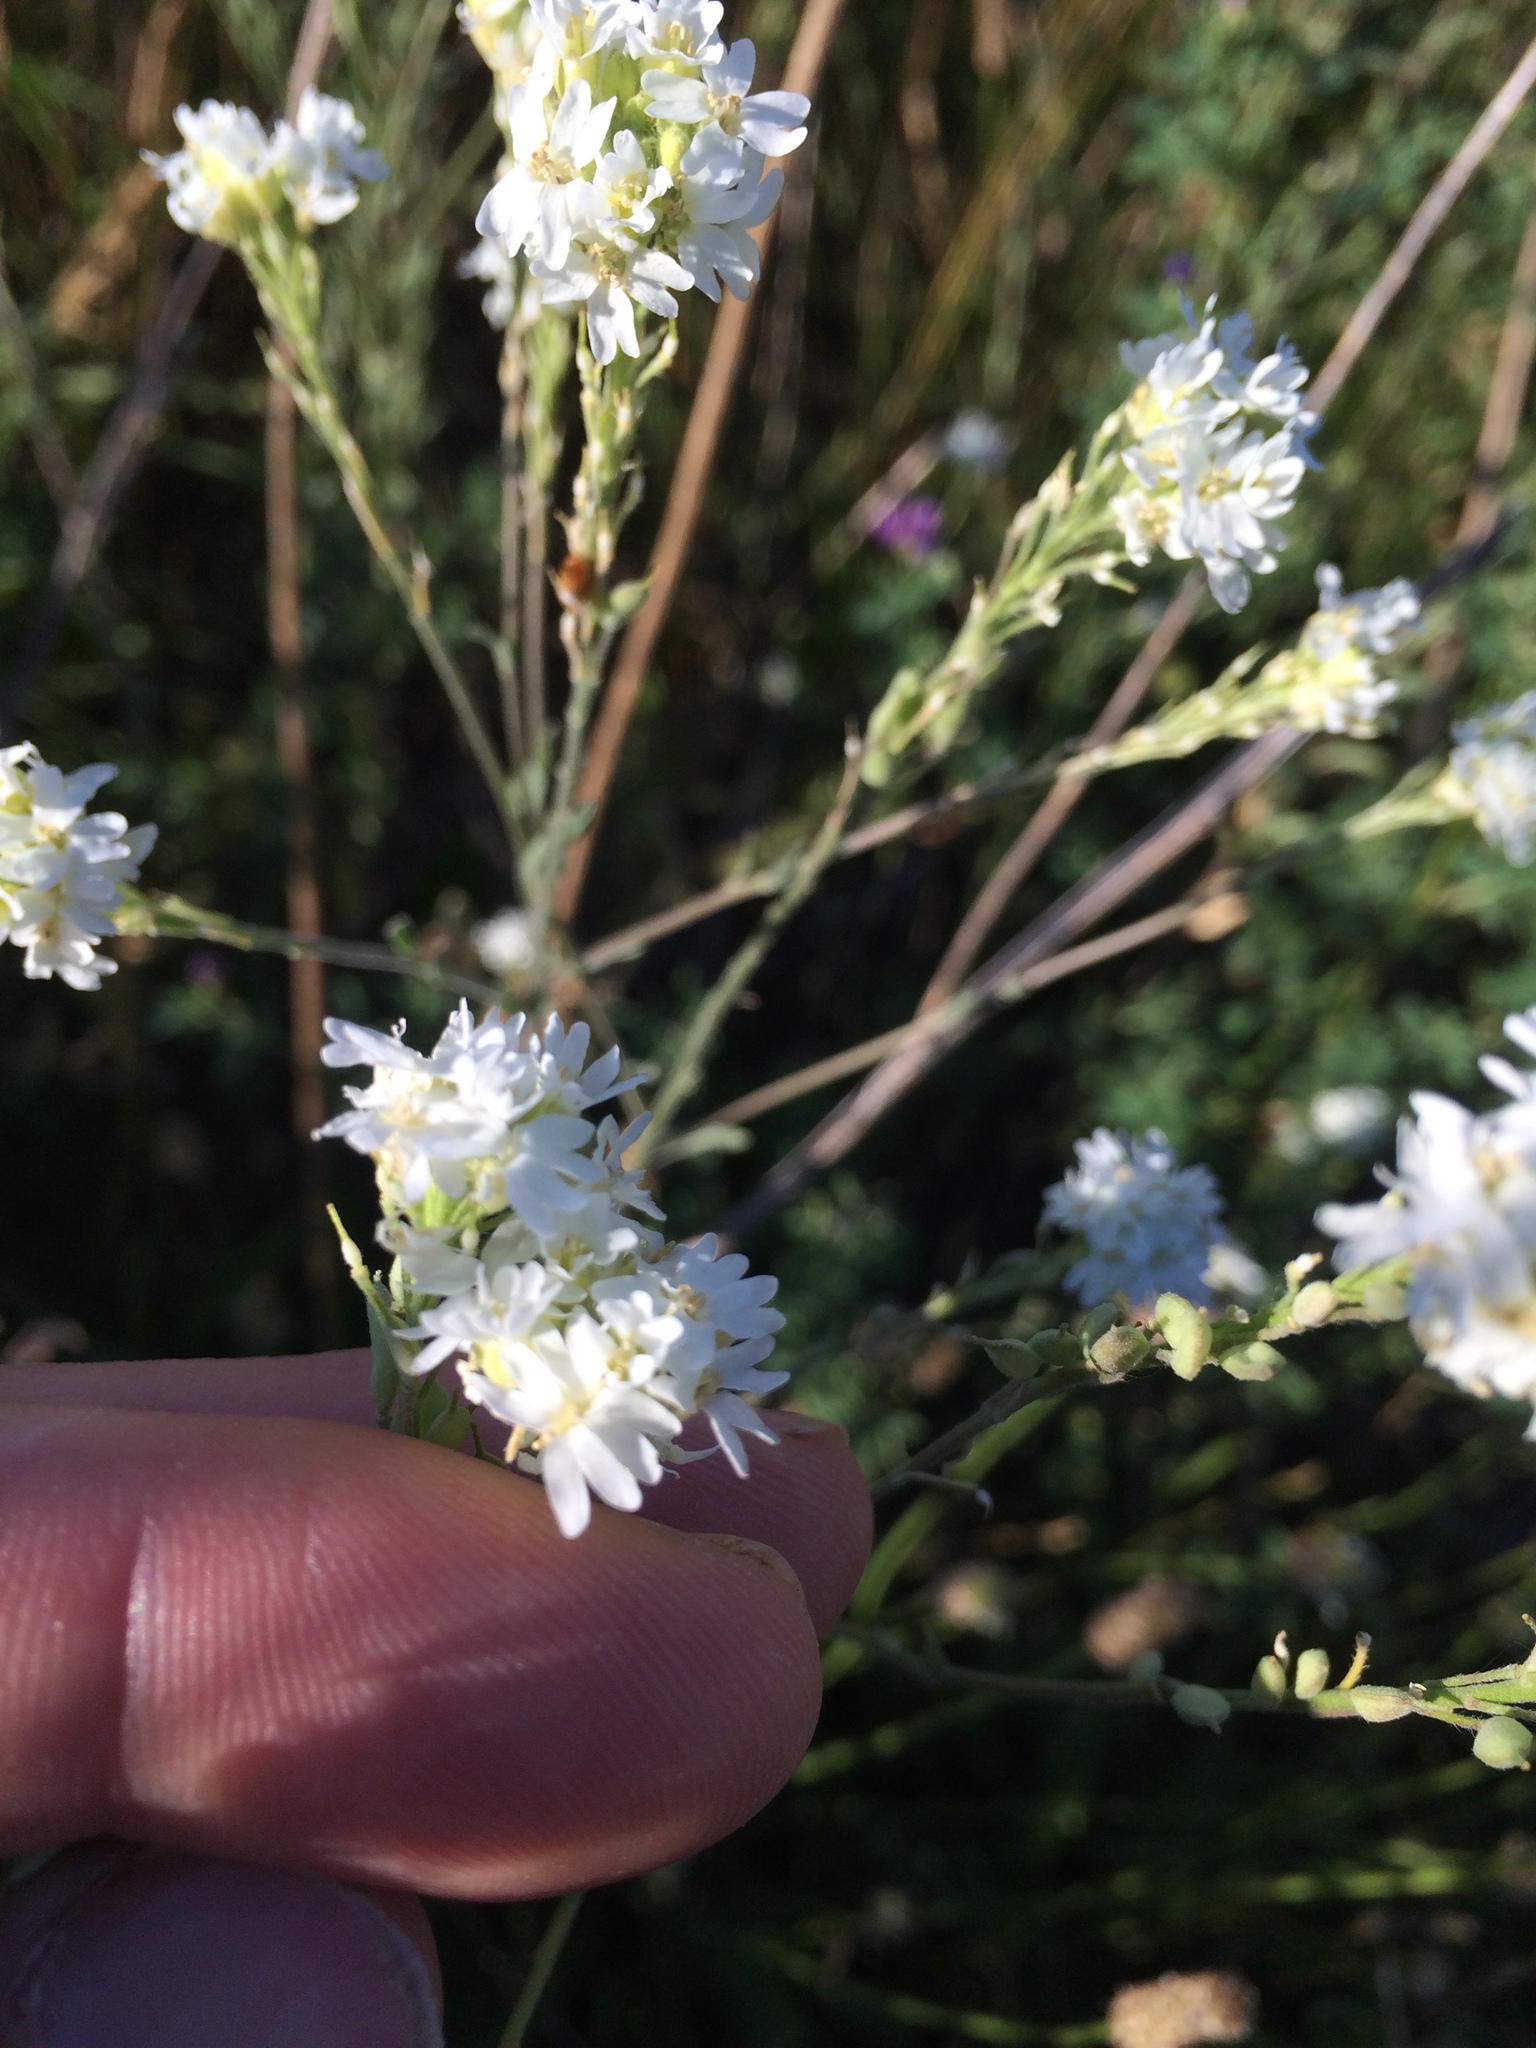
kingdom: Plantae
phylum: Tracheophyta
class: Magnoliopsida
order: Brassicales
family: Brassicaceae
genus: Berteroa
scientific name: Berteroa incana
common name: Hoary alison
